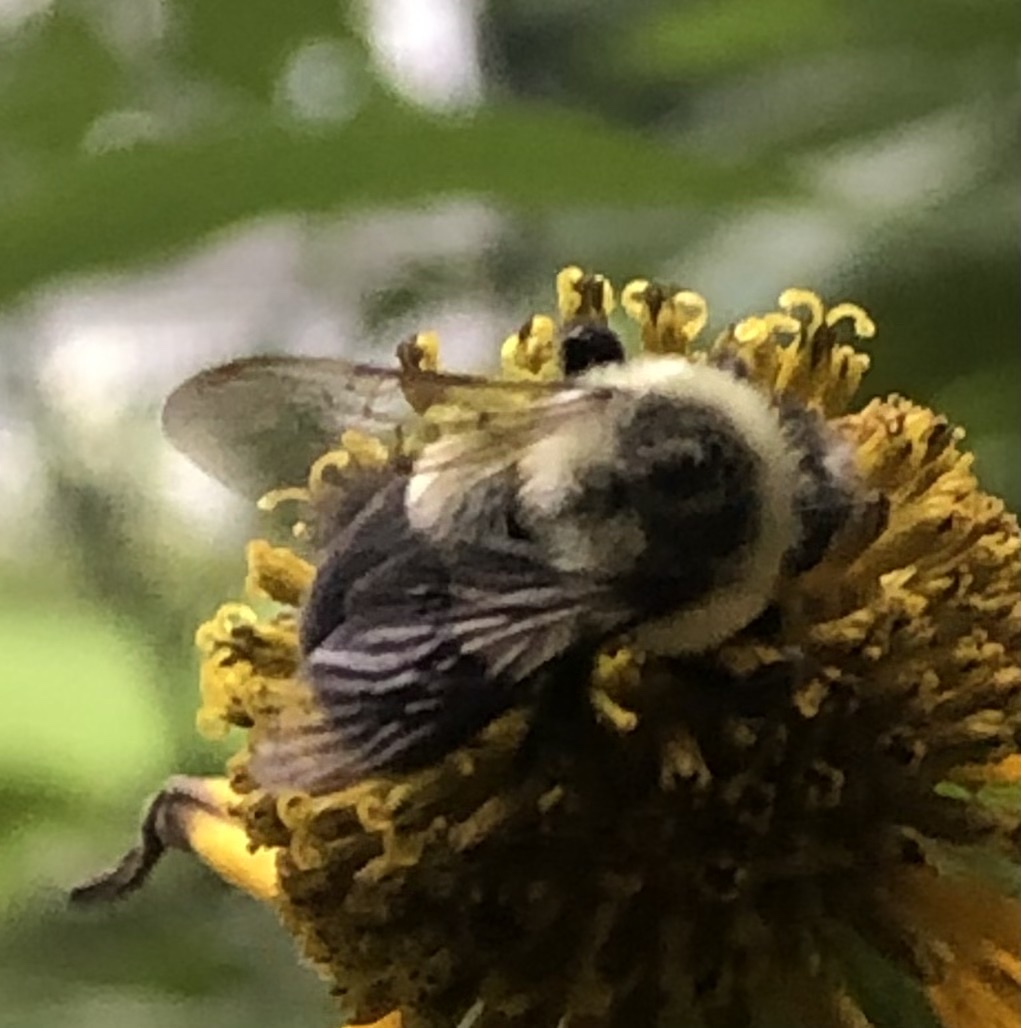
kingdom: Animalia
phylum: Arthropoda
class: Insecta
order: Hymenoptera
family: Apidae
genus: Bombus
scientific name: Bombus impatiens
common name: Common eastern bumble bee
